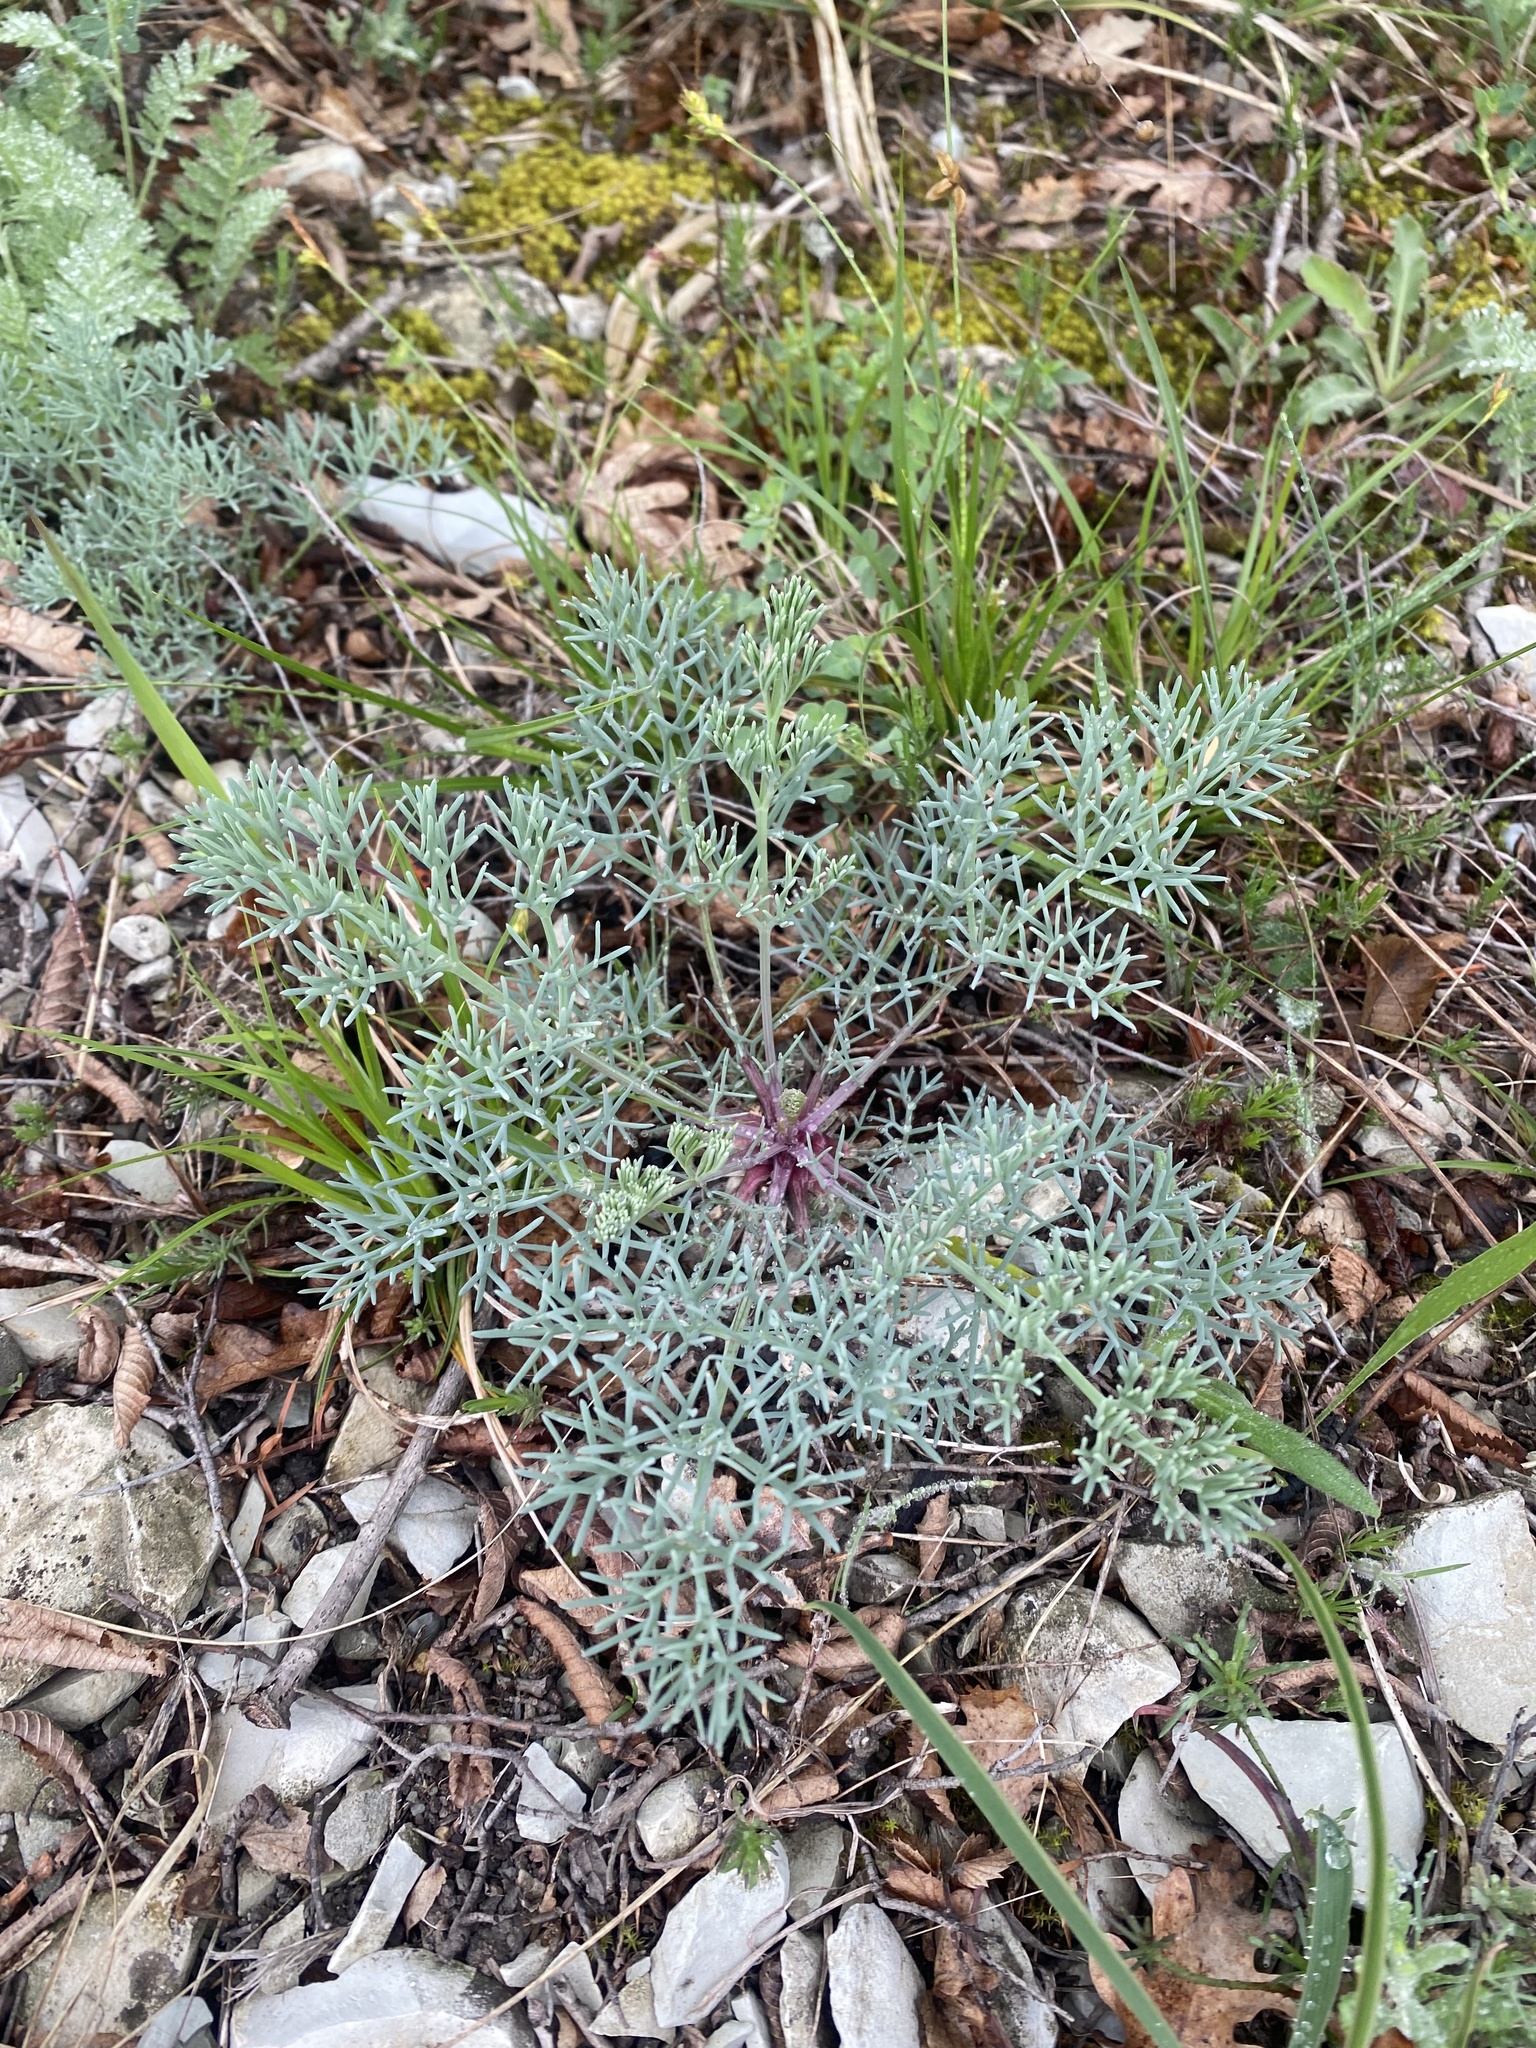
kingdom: Plantae
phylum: Tracheophyta
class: Magnoliopsida
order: Apiales
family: Apiaceae
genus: Seseli
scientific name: Seseli ponticum
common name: Pontic seseli
